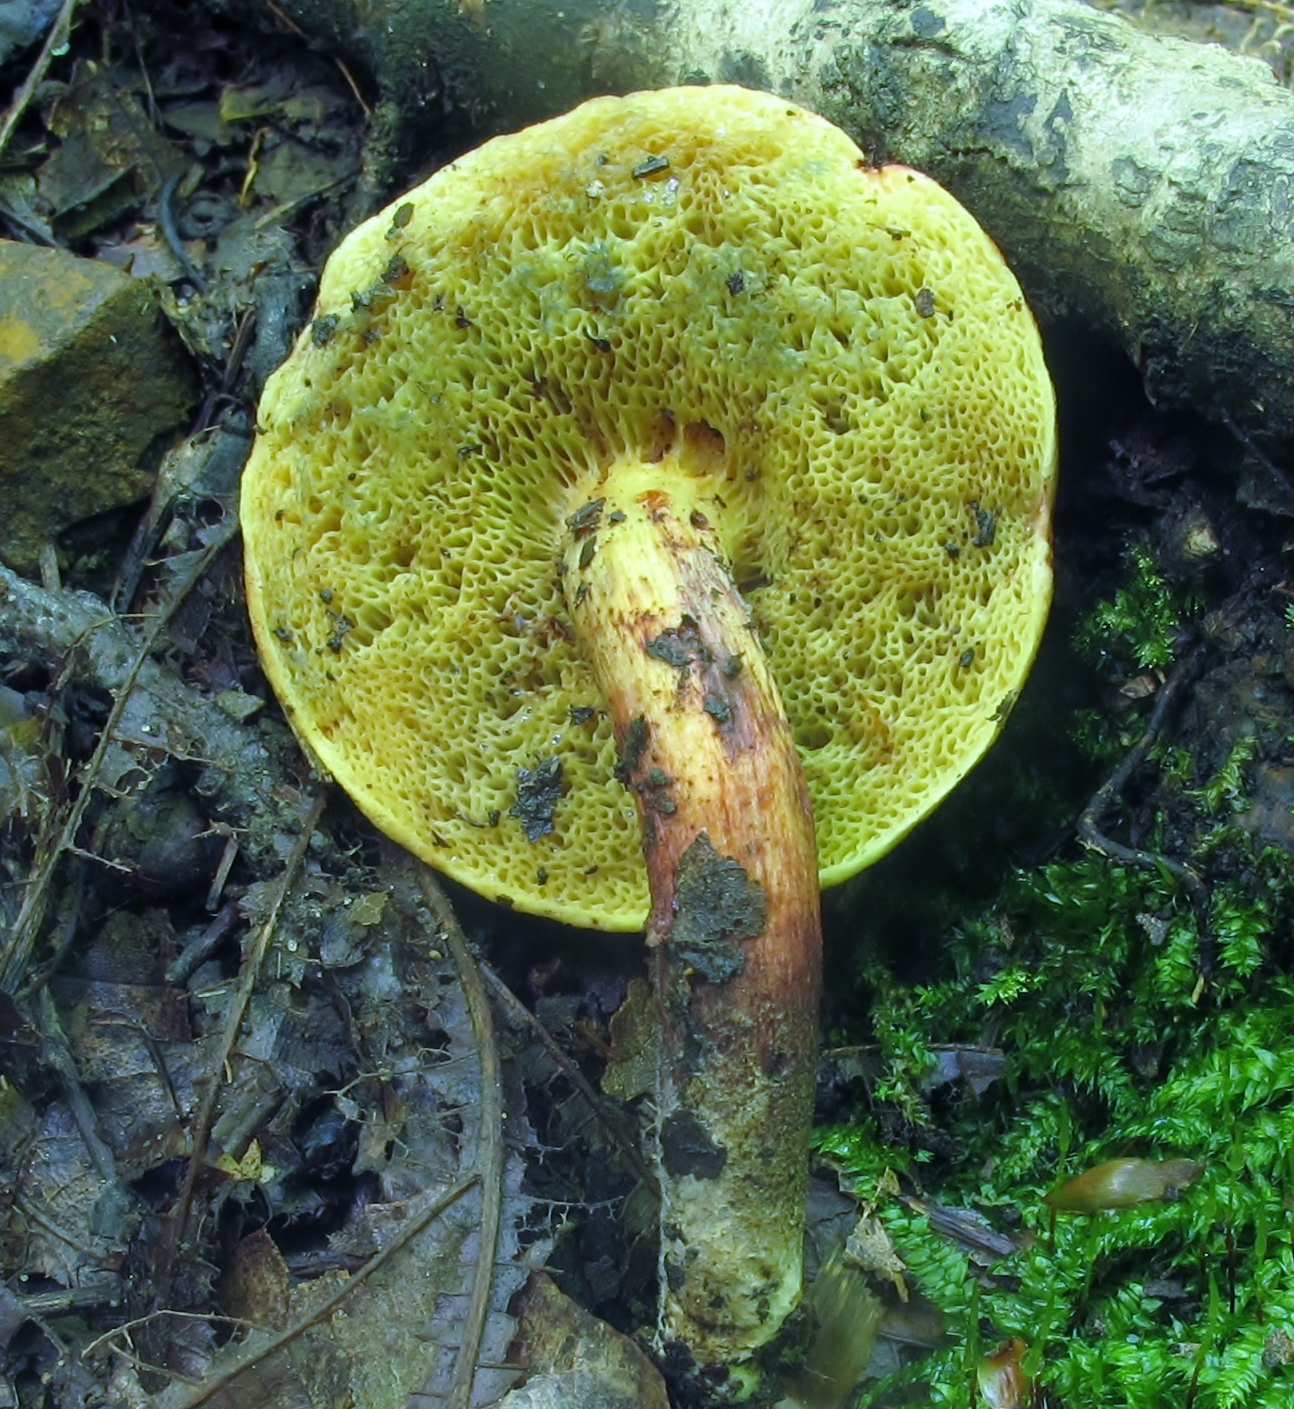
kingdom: Fungi
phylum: Basidiomycota
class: Agaricomycetes
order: Boletales
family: Boletaceae
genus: Boletellus
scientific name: Boletellus pseudochrysenteroides
